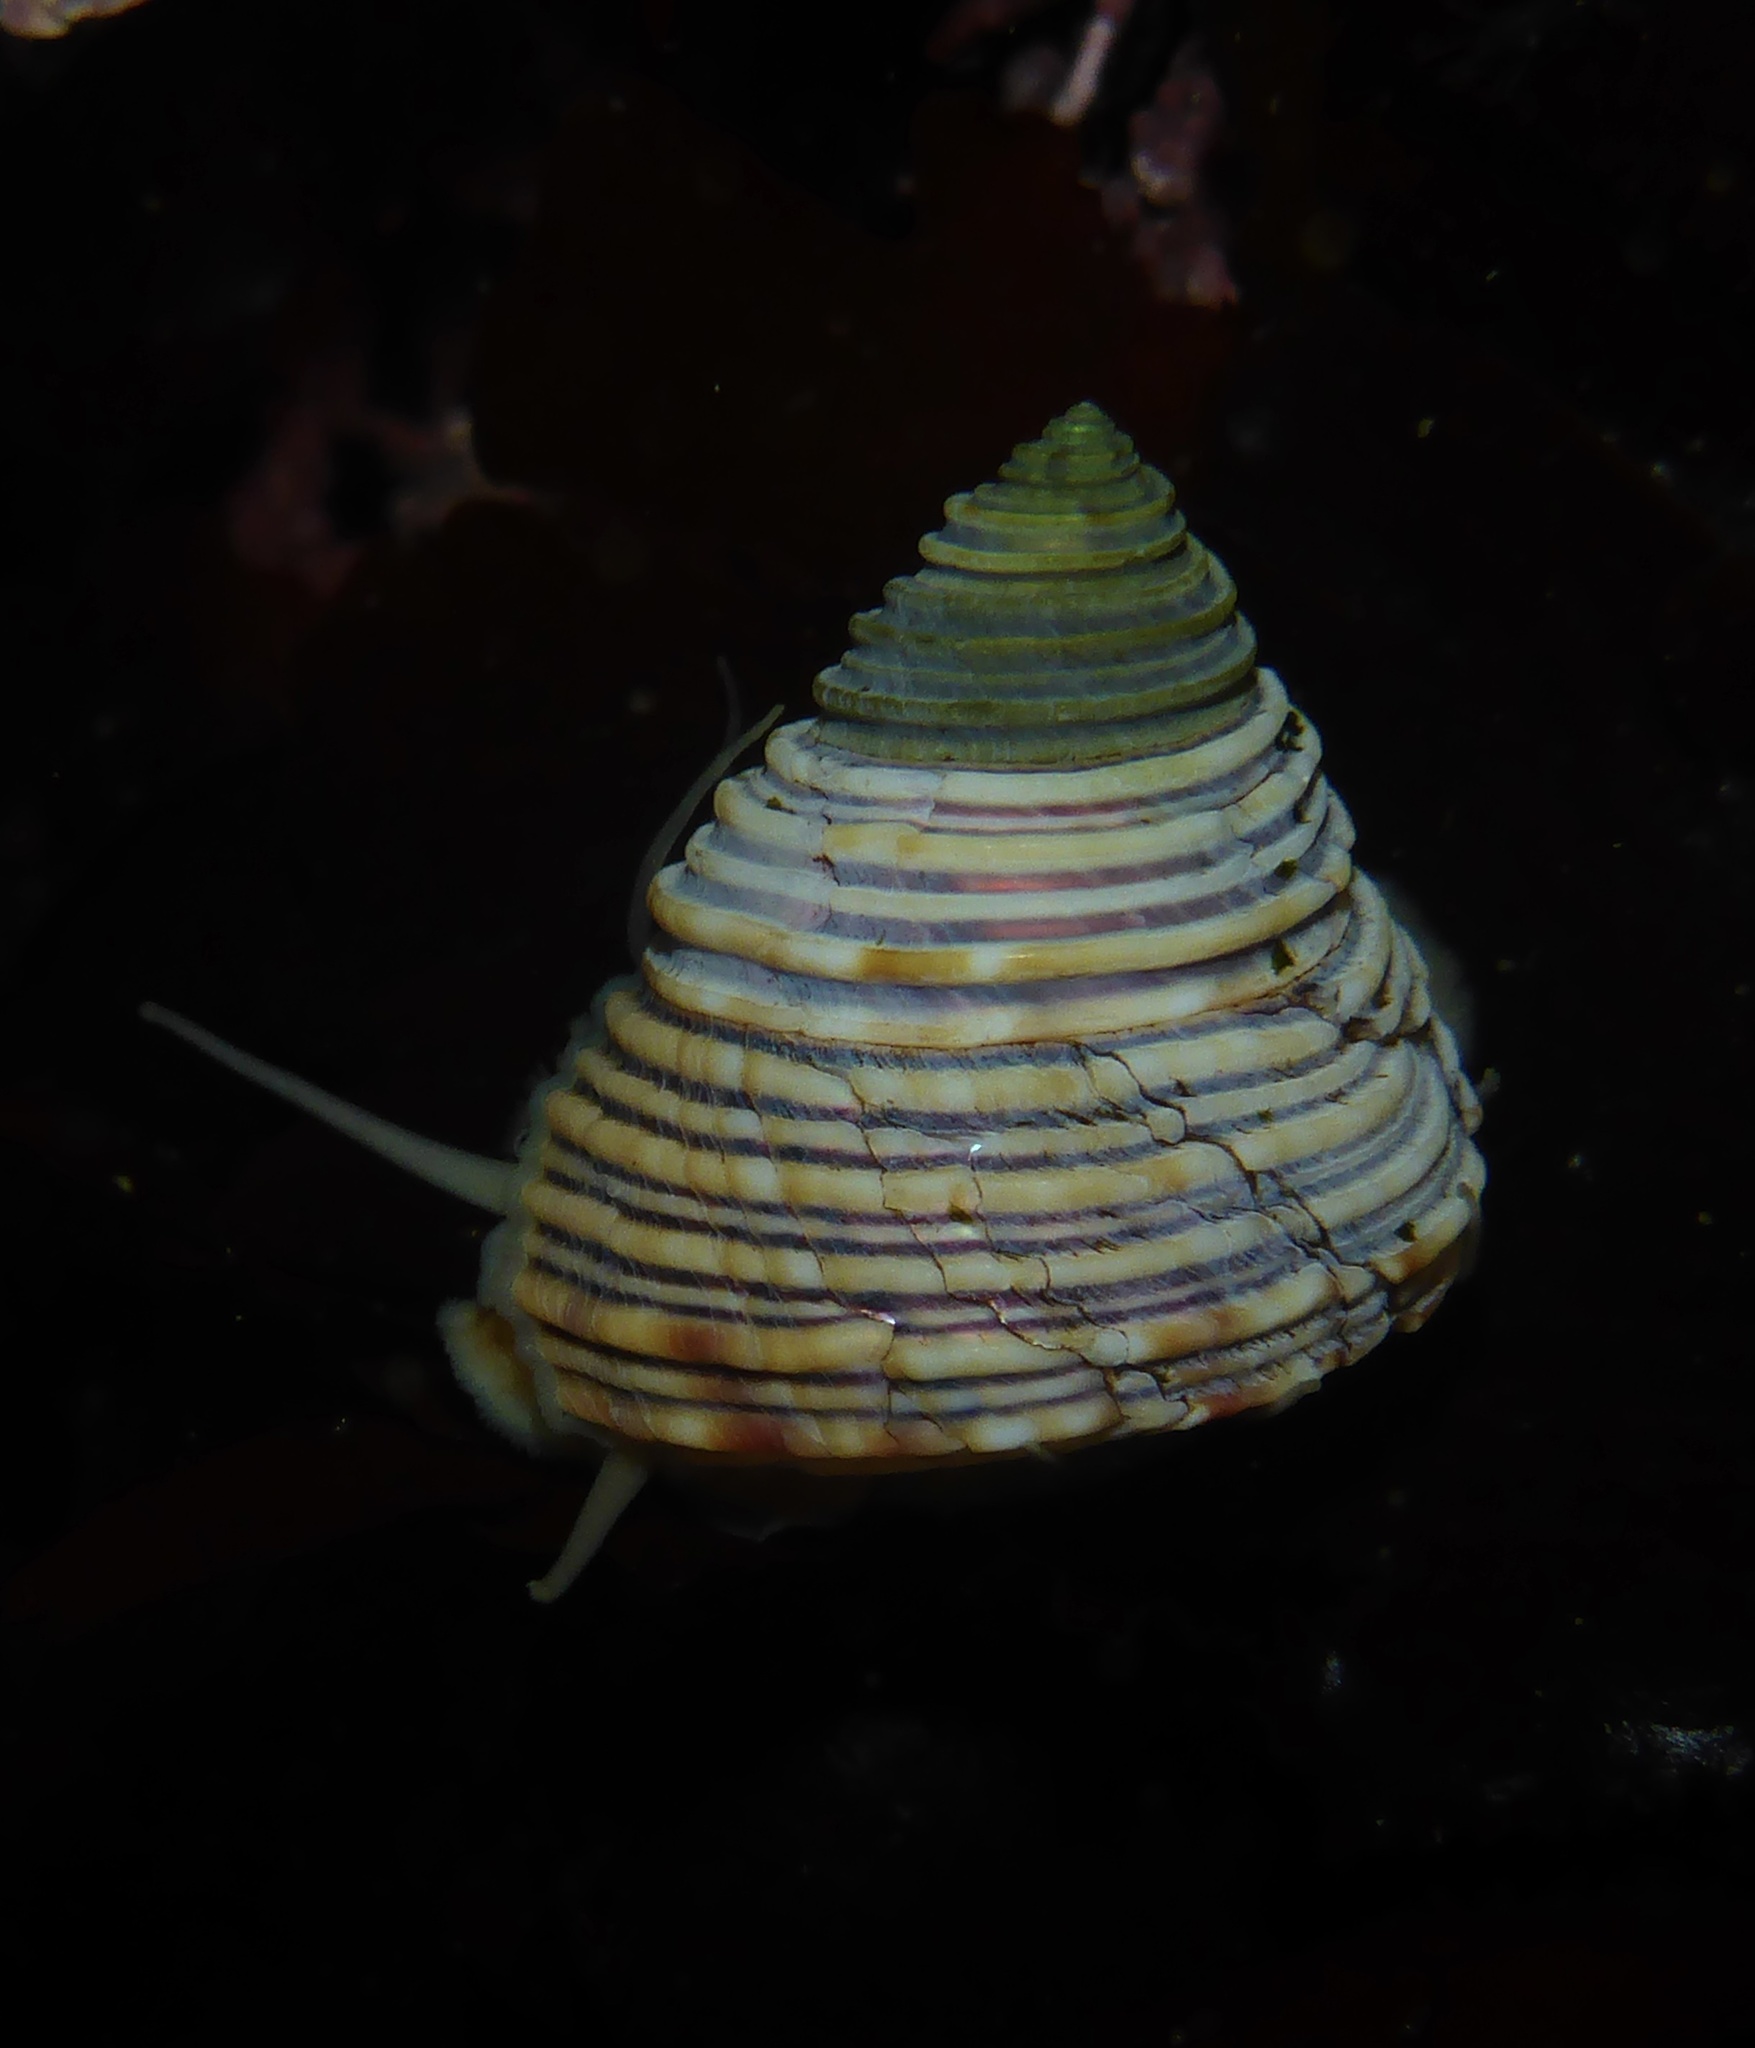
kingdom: Animalia
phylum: Mollusca
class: Gastropoda
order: Trochida
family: Calliostomatidae
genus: Calliostoma
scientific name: Calliostoma canaliculatum
